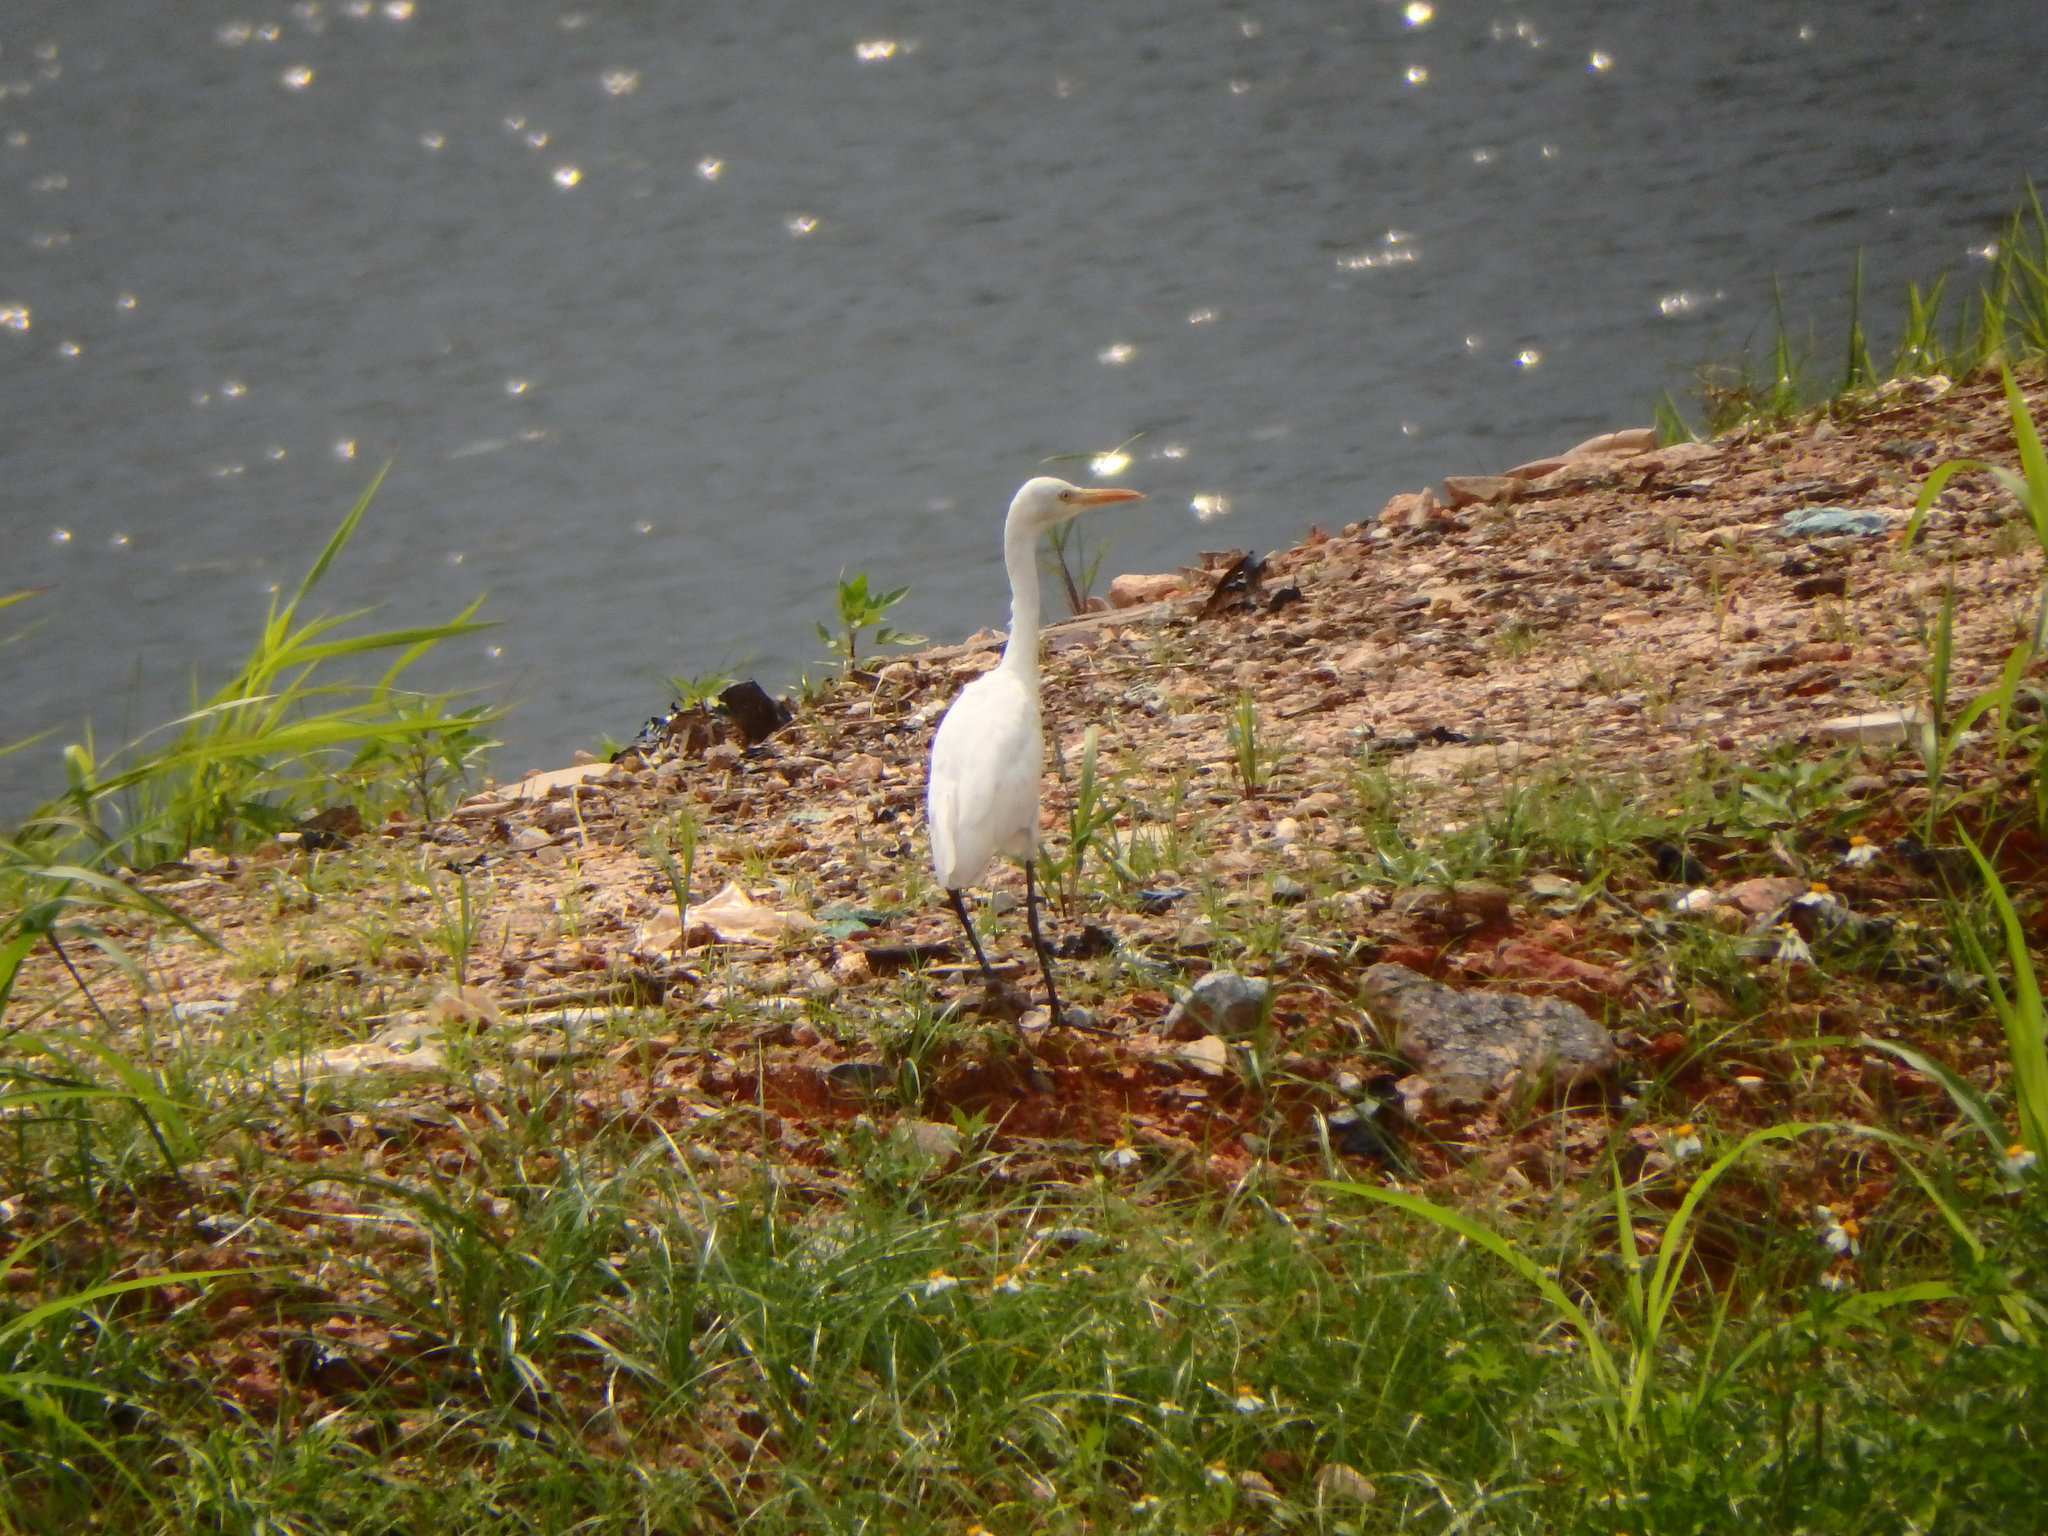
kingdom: Animalia
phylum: Chordata
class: Aves
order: Pelecaniformes
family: Ardeidae
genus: Egretta
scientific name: Egretta intermedia
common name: Intermediate egret
